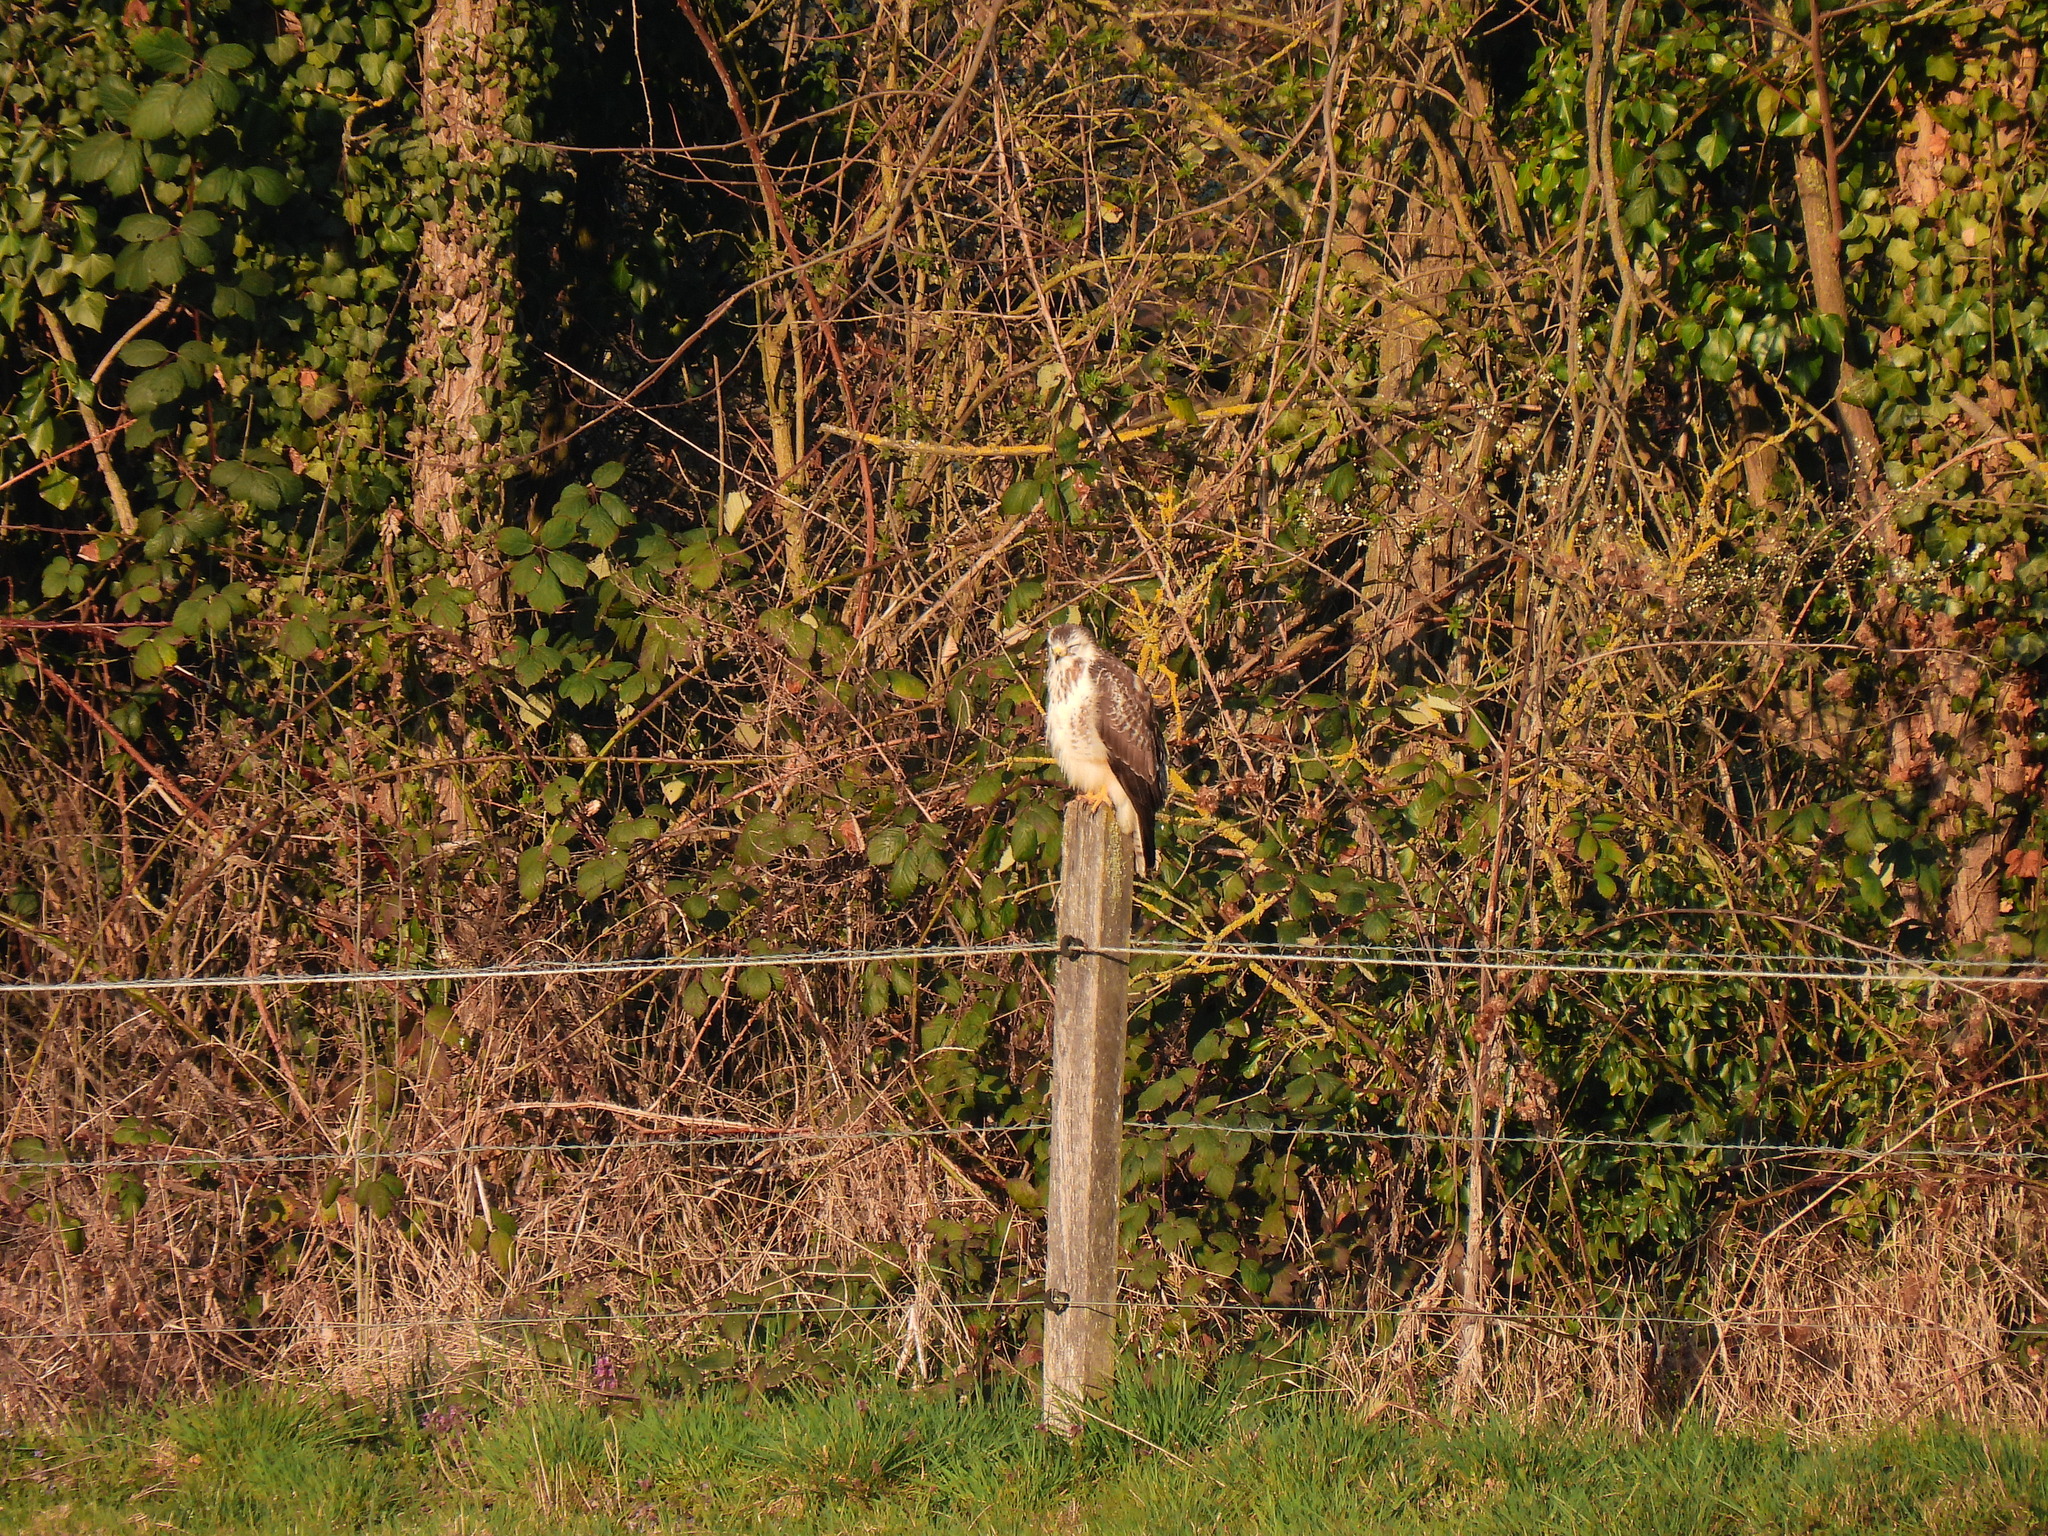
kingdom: Animalia
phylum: Chordata
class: Aves
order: Accipitriformes
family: Accipitridae
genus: Buteo
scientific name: Buteo buteo
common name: Common buzzard
